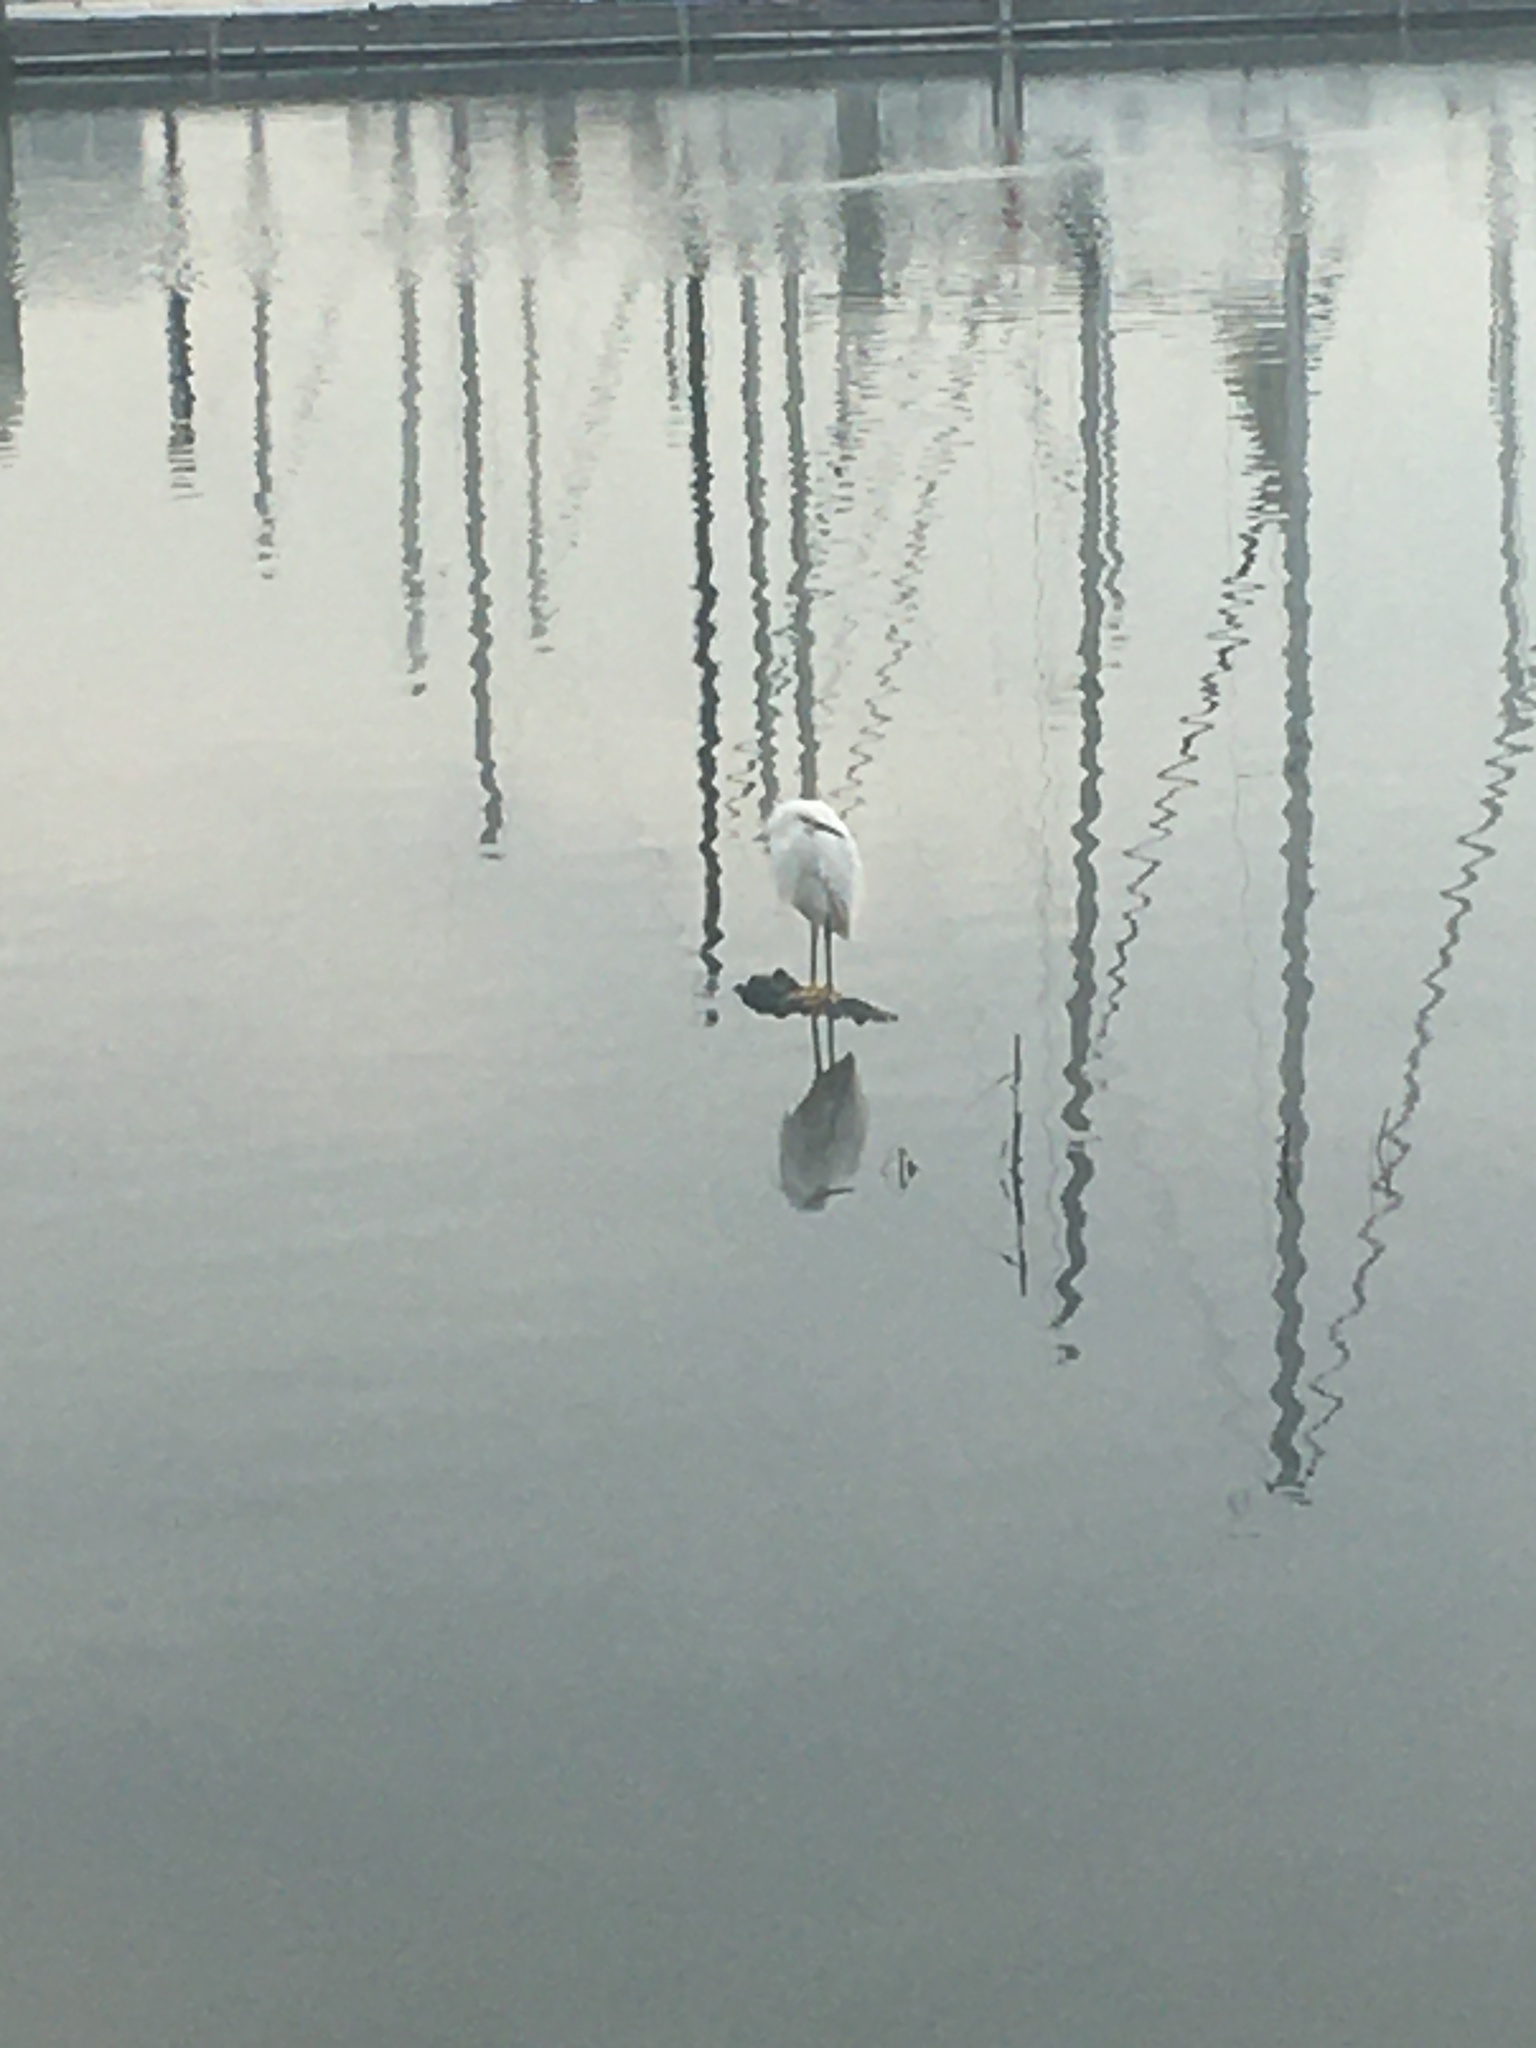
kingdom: Animalia
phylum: Chordata
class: Aves
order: Pelecaniformes
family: Ardeidae
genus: Egretta
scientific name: Egretta thula
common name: Snowy egret
